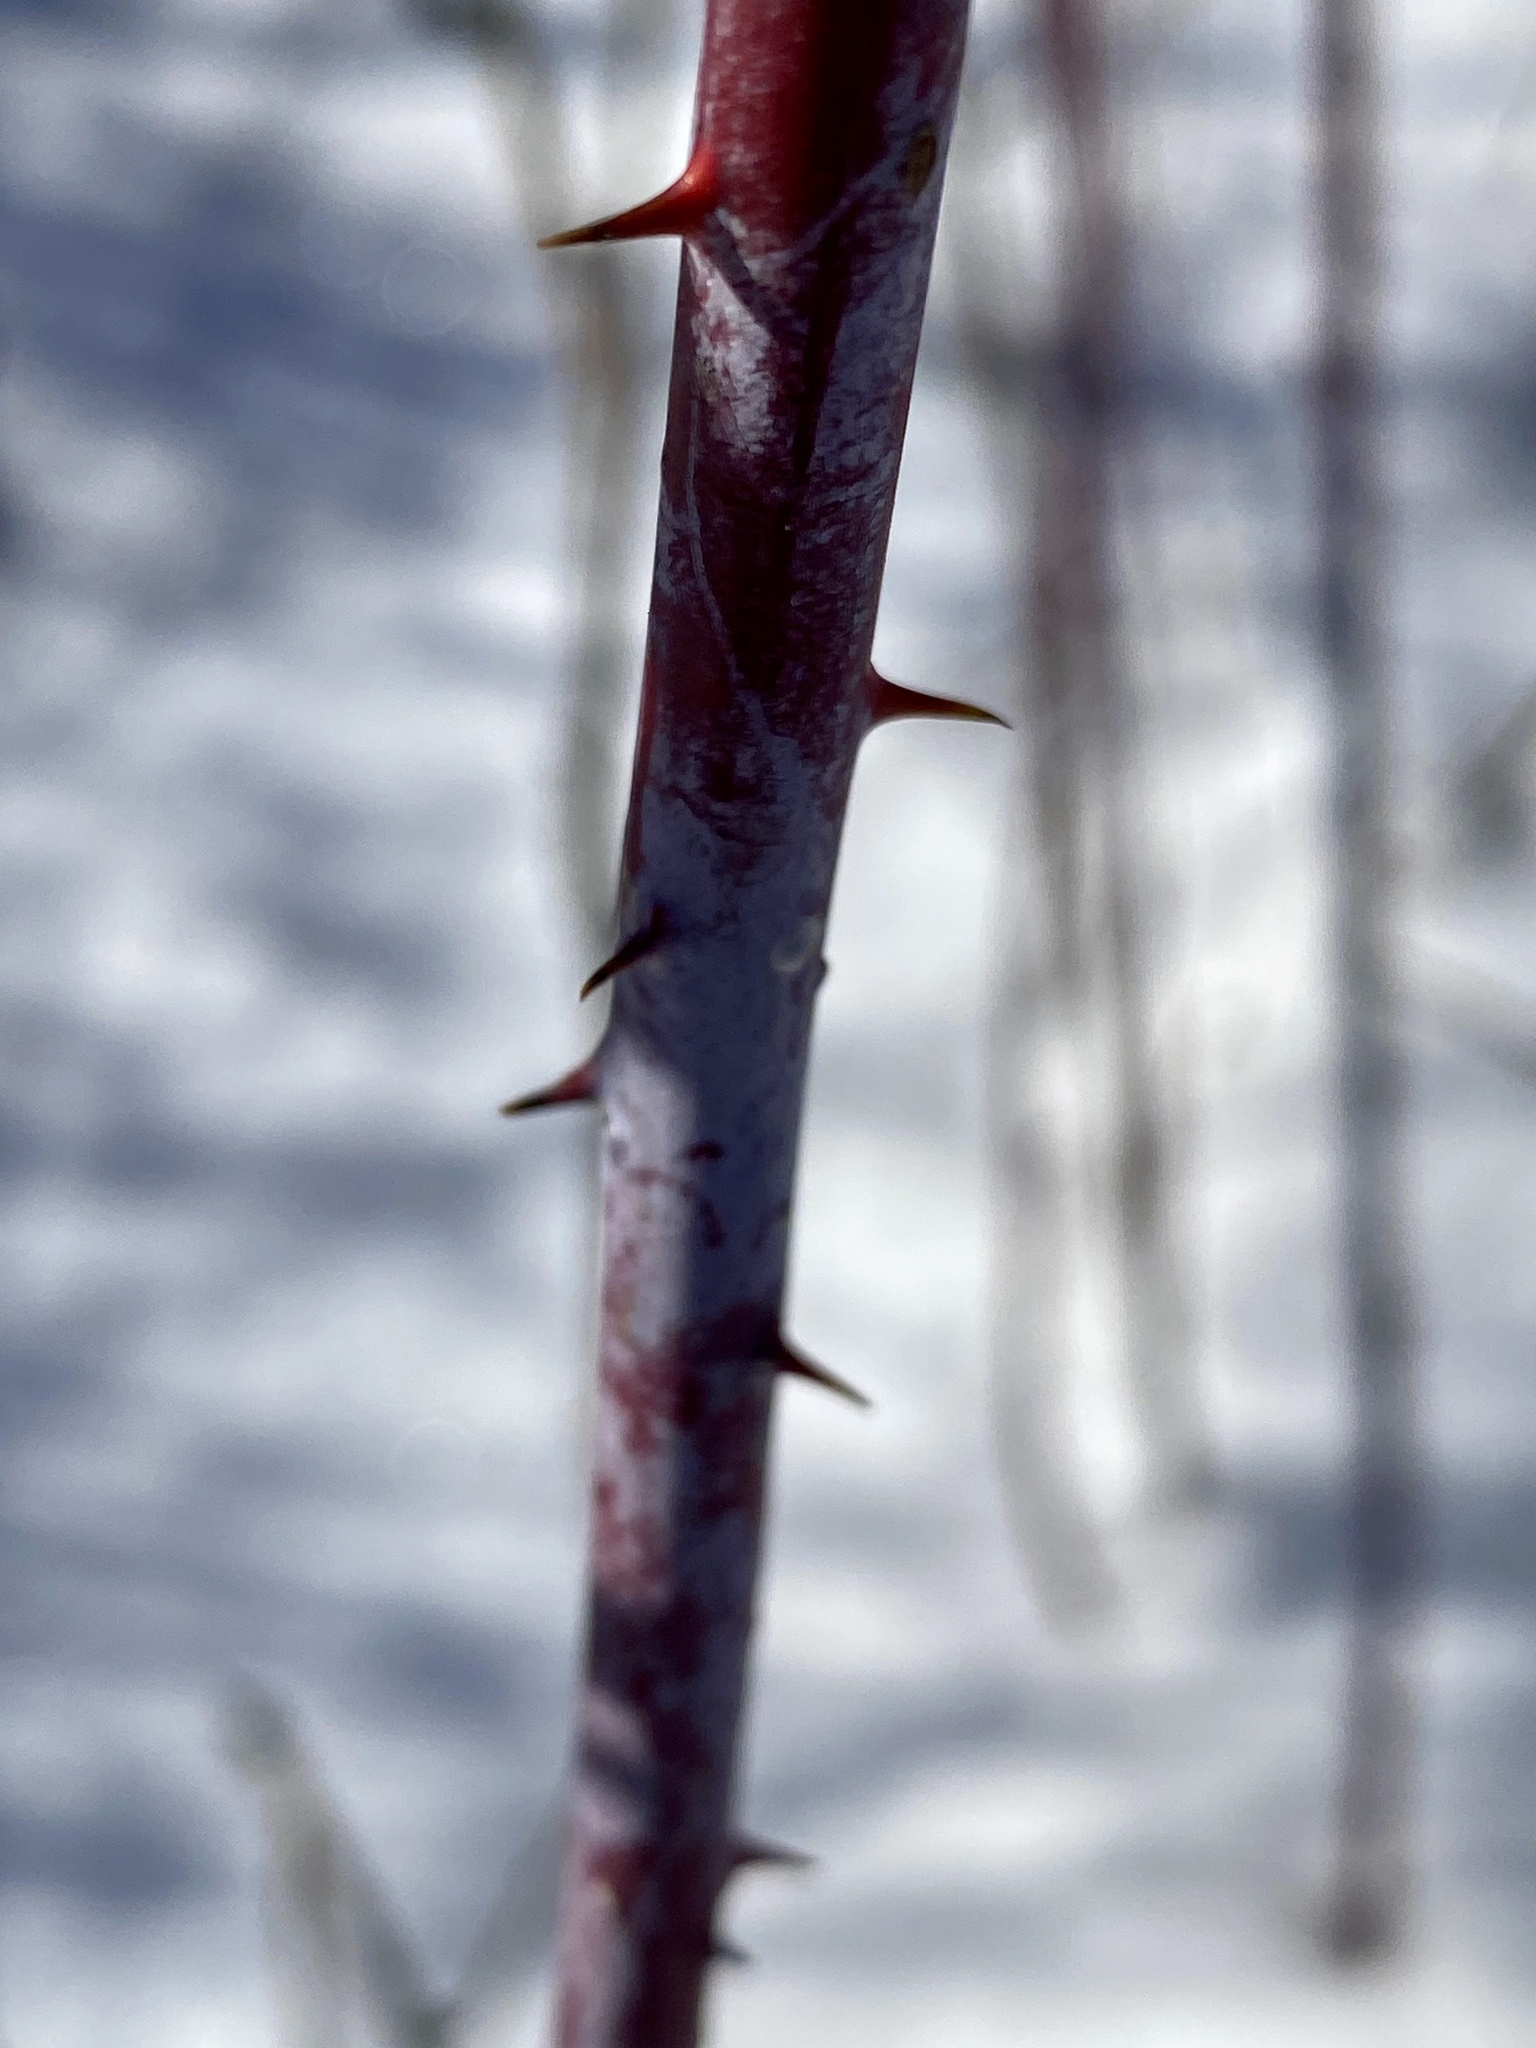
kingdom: Plantae
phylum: Tracheophyta
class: Magnoliopsida
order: Rosales
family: Rosaceae
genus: Rubus
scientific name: Rubus occidentalis
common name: Black raspberry
